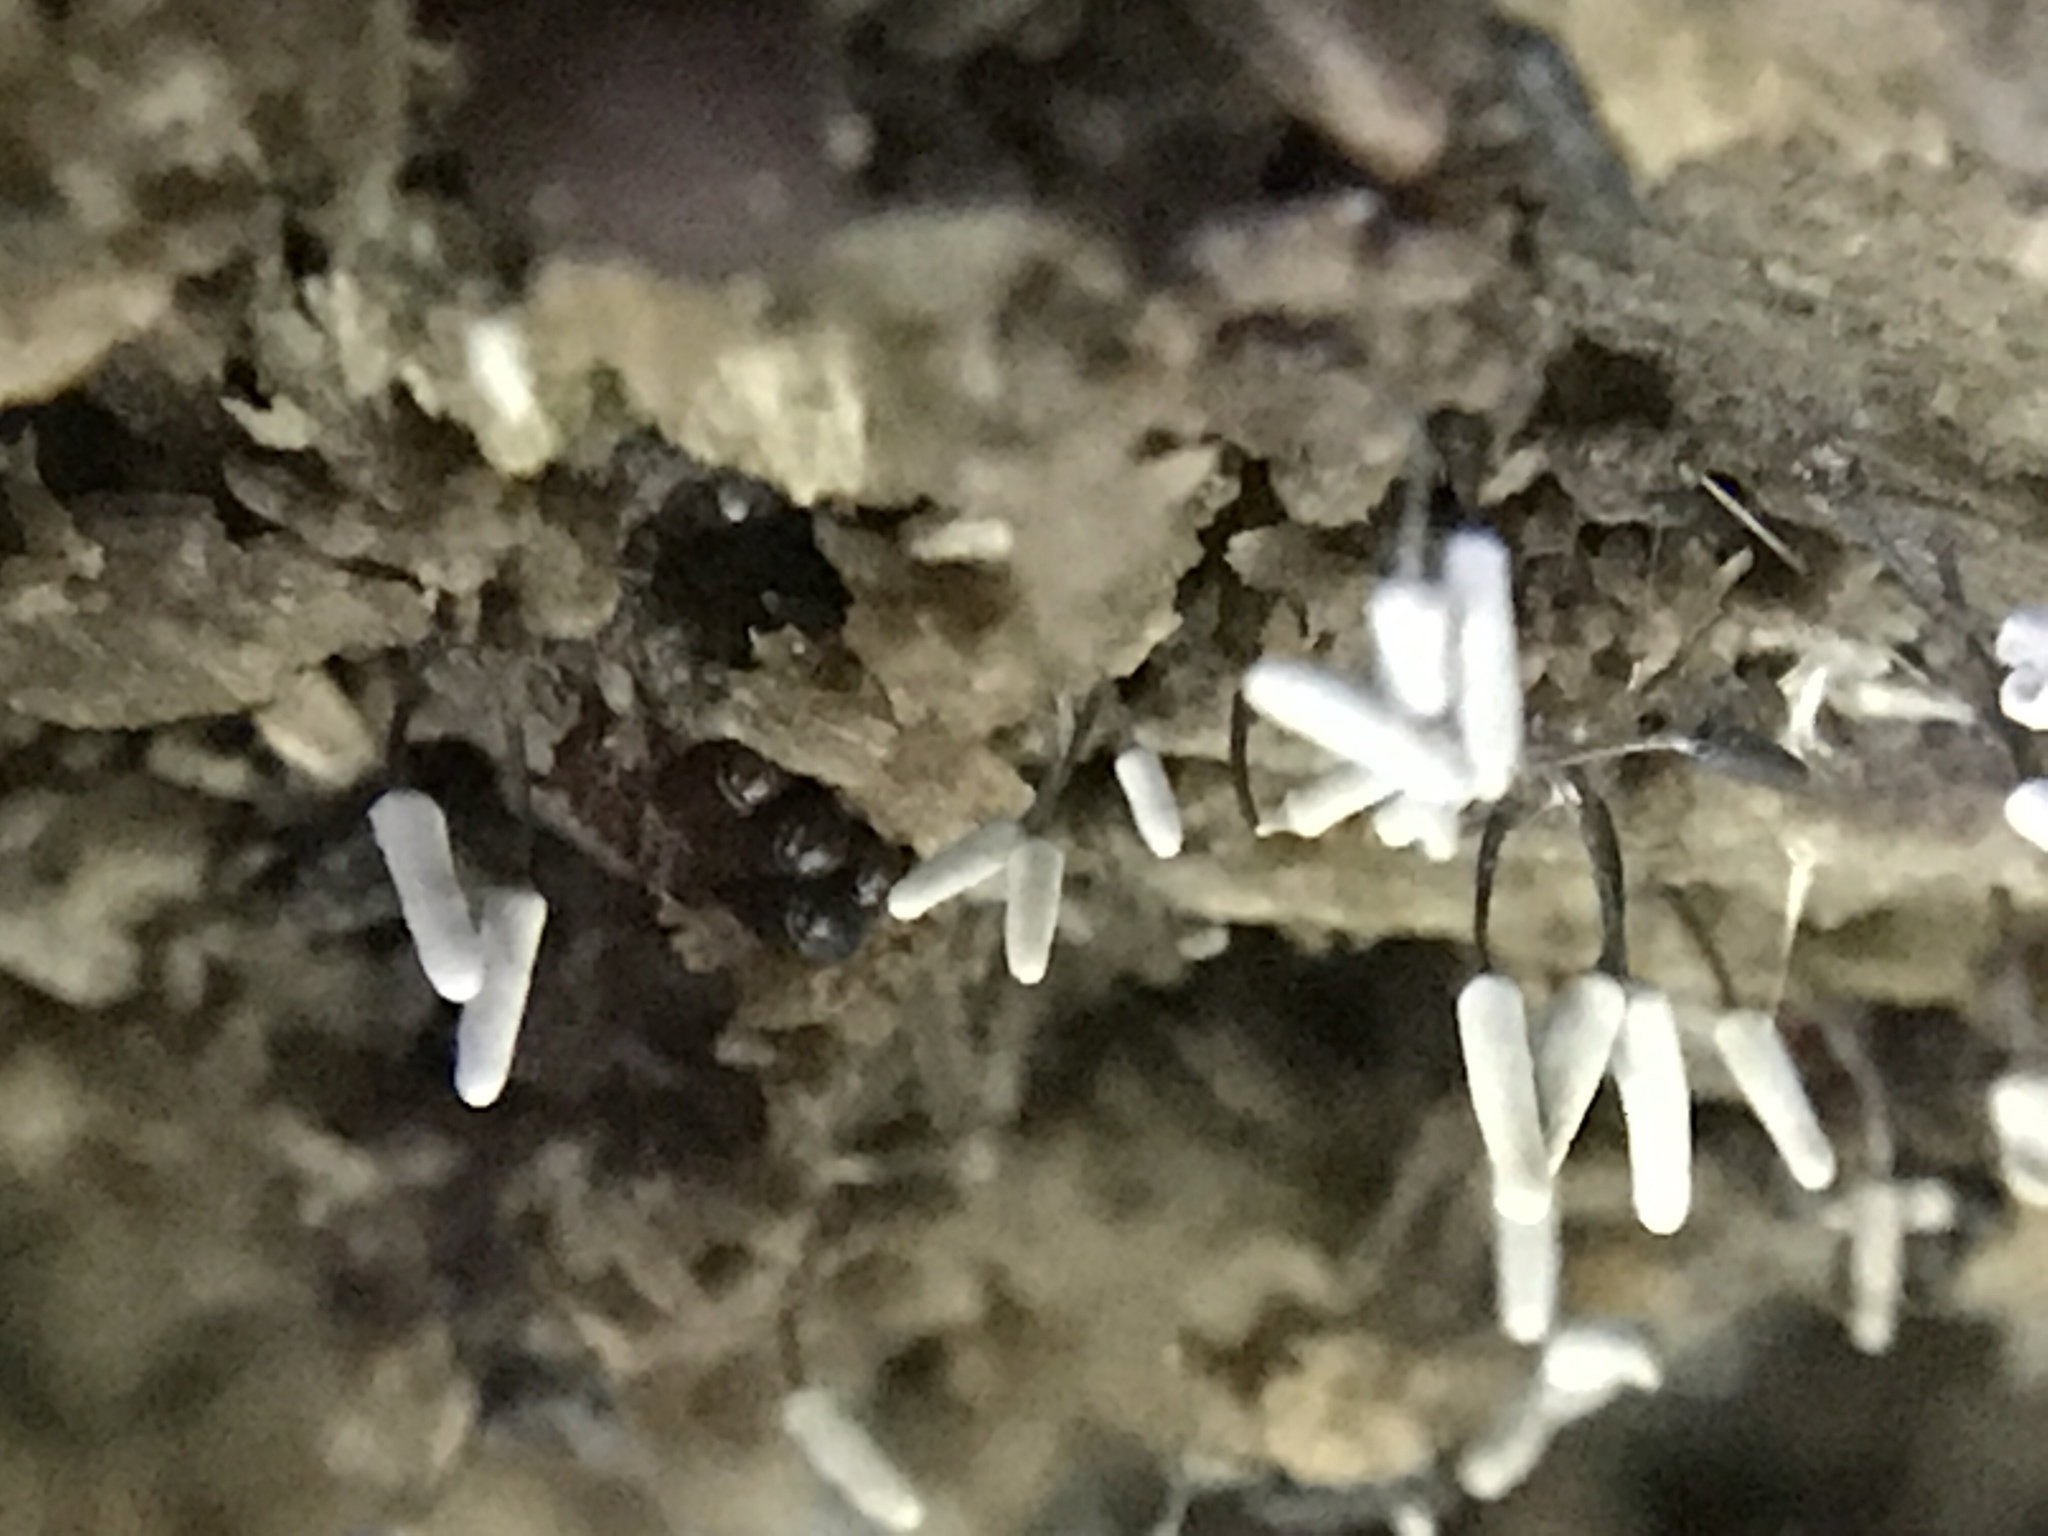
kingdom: Protozoa
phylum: Mycetozoa
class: Myxomycetes
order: Trichiales
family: Arcyriaceae
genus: Arcyria
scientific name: Arcyria cinerea
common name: White carnival candy slime mold
